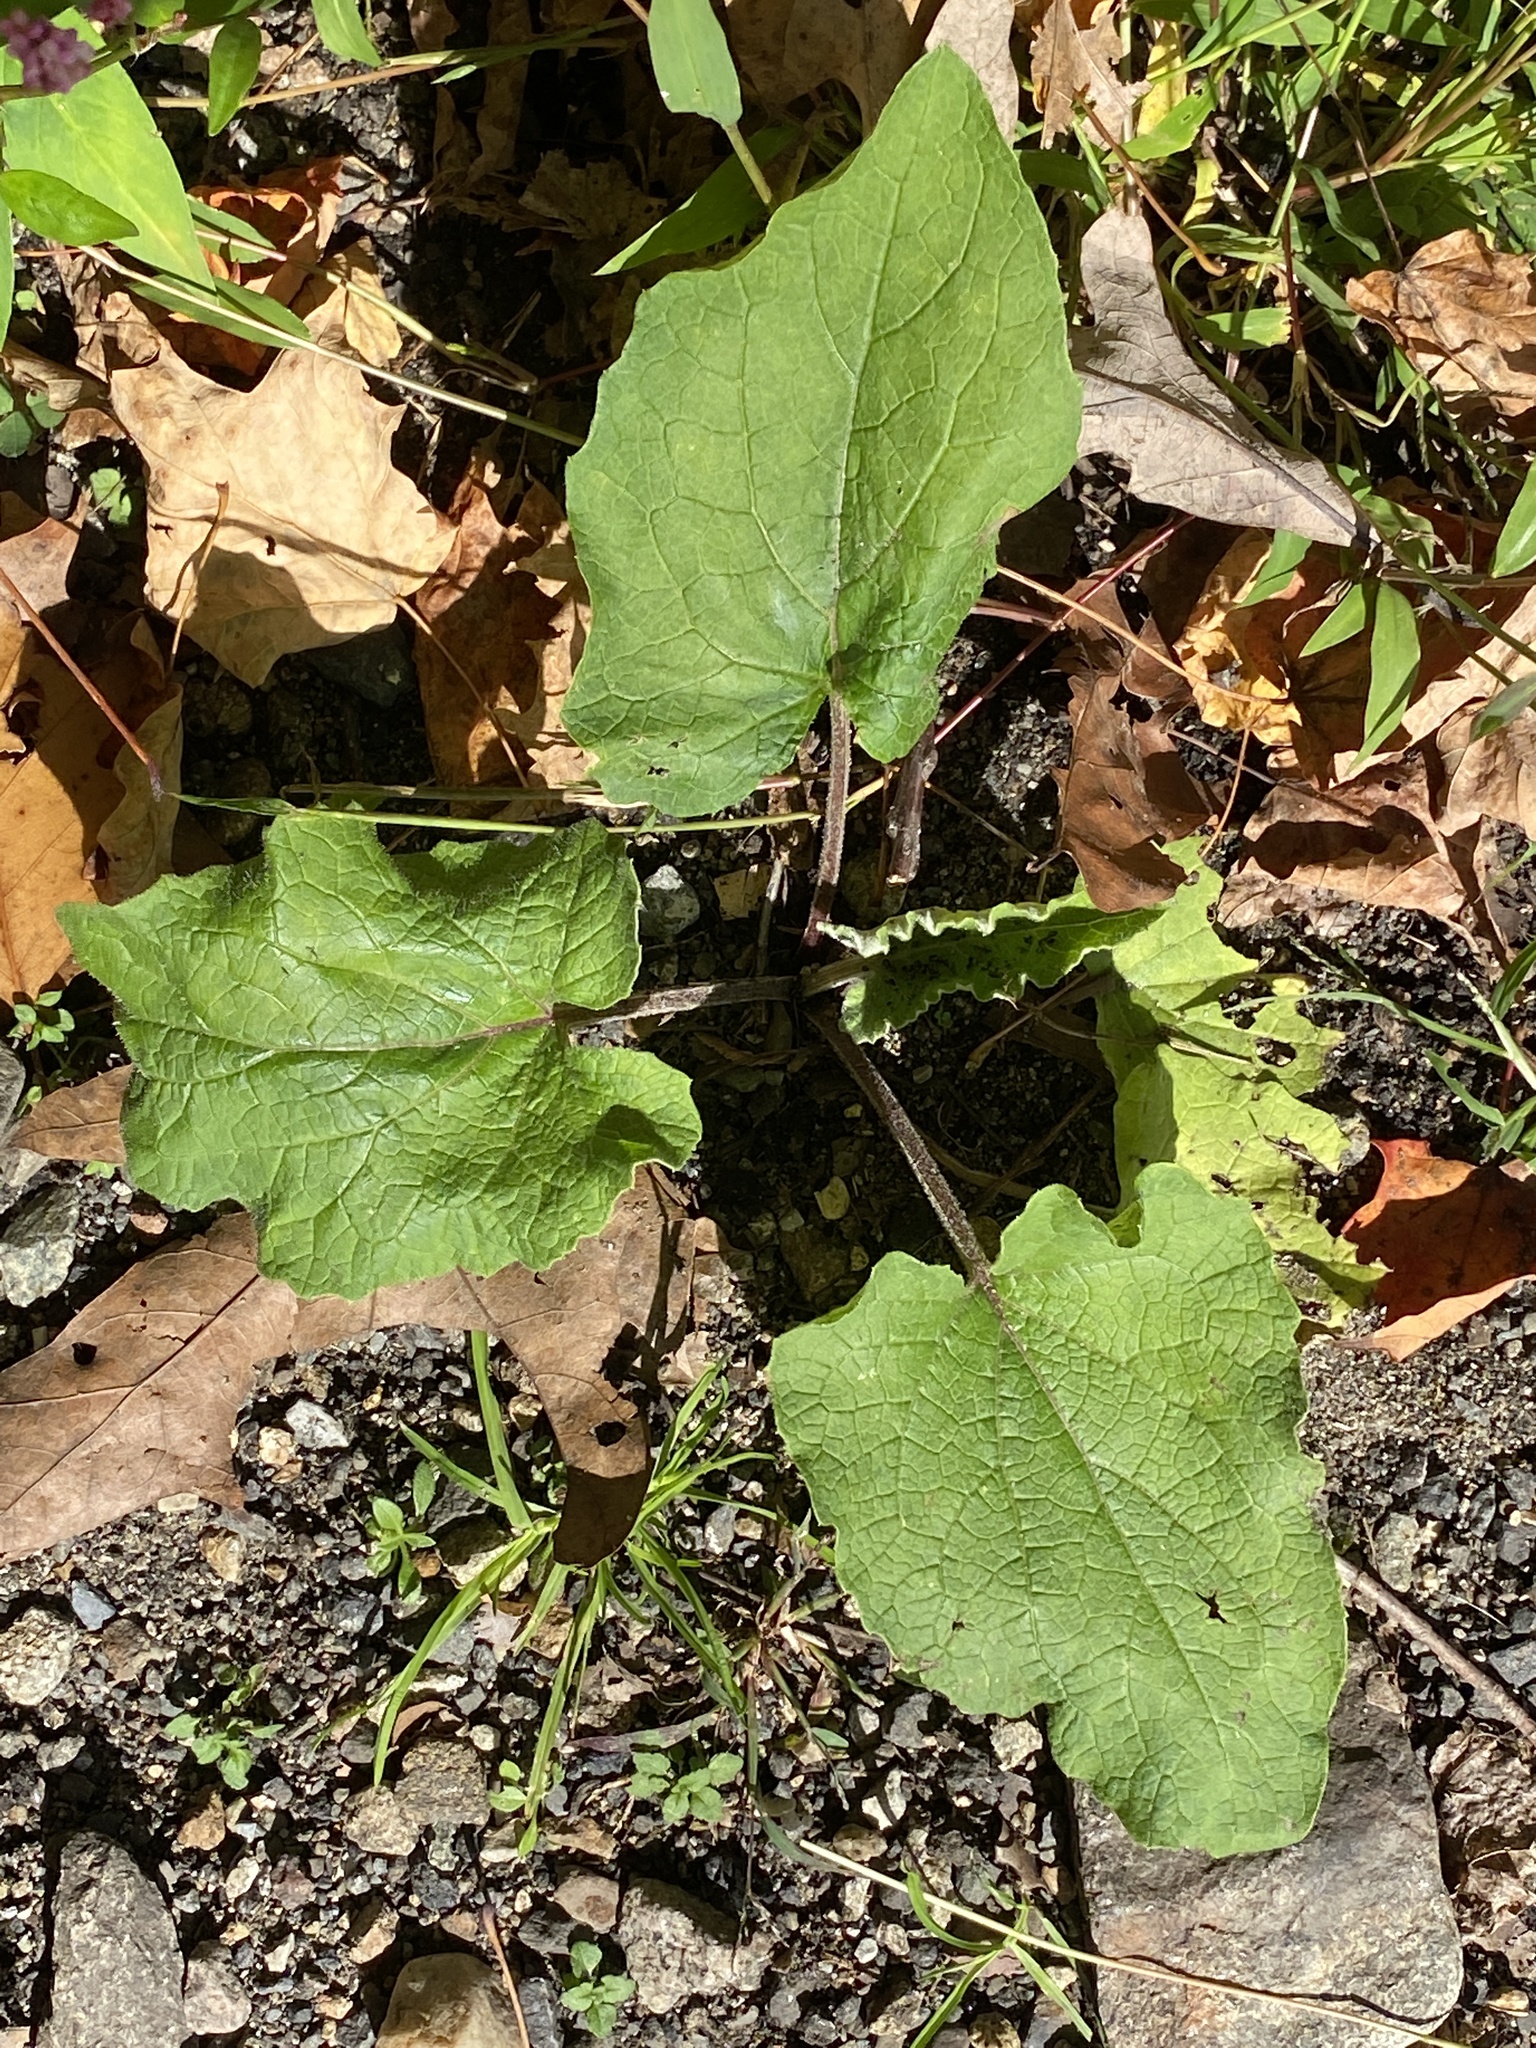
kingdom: Plantae
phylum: Tracheophyta
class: Magnoliopsida
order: Asterales
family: Asteraceae
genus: Arctium
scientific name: Arctium
